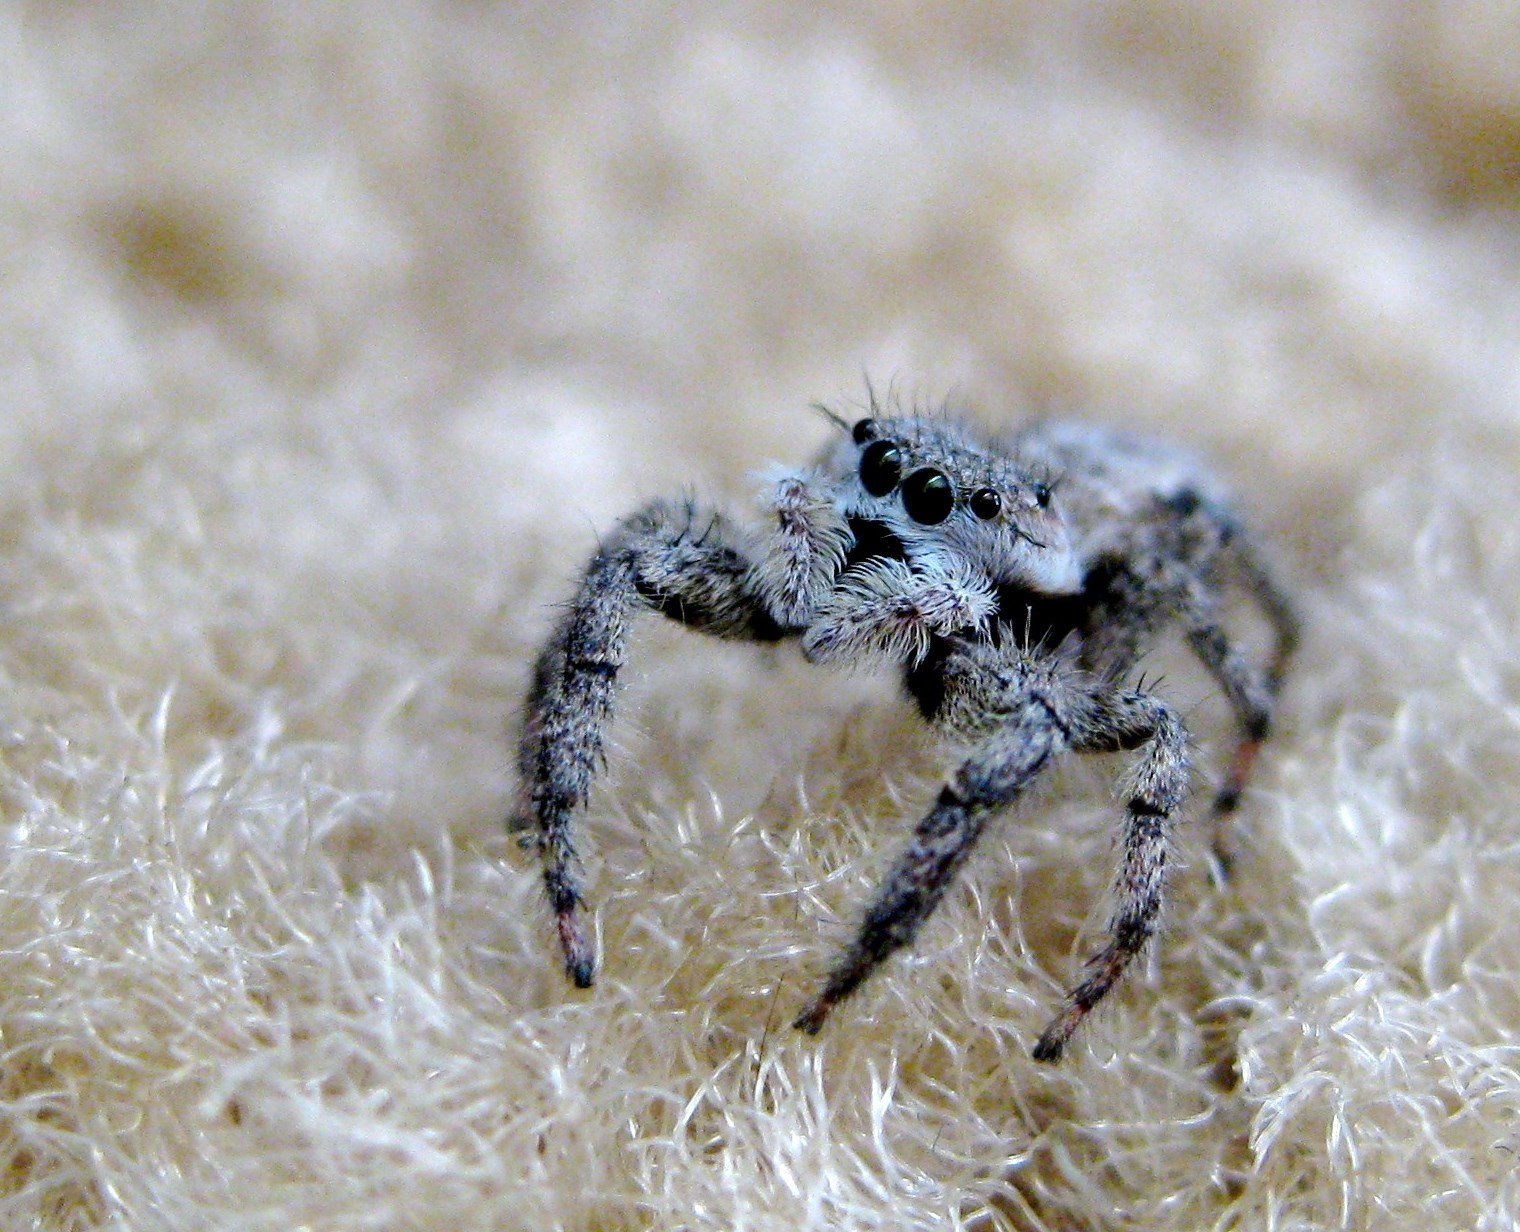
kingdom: Animalia
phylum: Arthropoda
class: Arachnida
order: Araneae
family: Salticidae
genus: Platycryptus
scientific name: Platycryptus undatus
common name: Tan jumping spider
